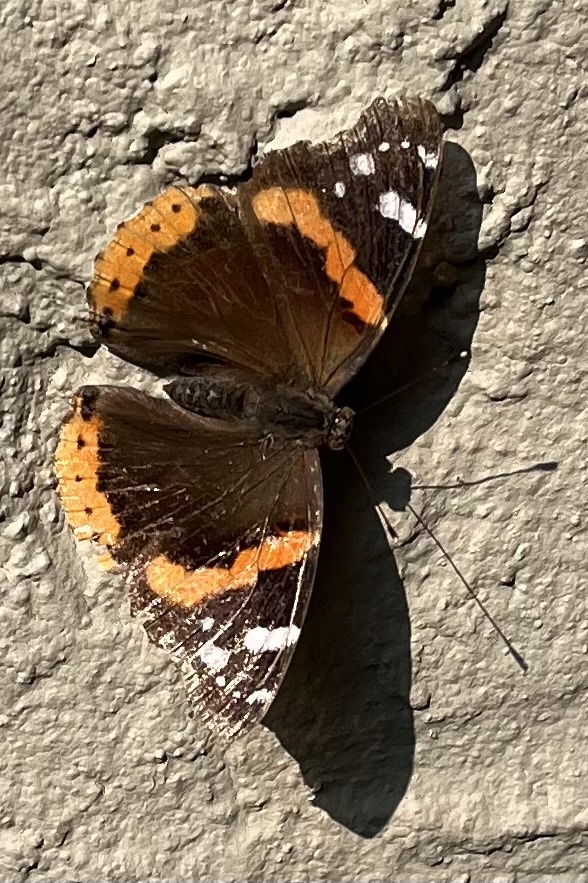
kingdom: Animalia
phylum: Arthropoda
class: Insecta
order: Lepidoptera
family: Nymphalidae
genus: Vanessa
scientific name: Vanessa atalanta
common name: Red admiral
